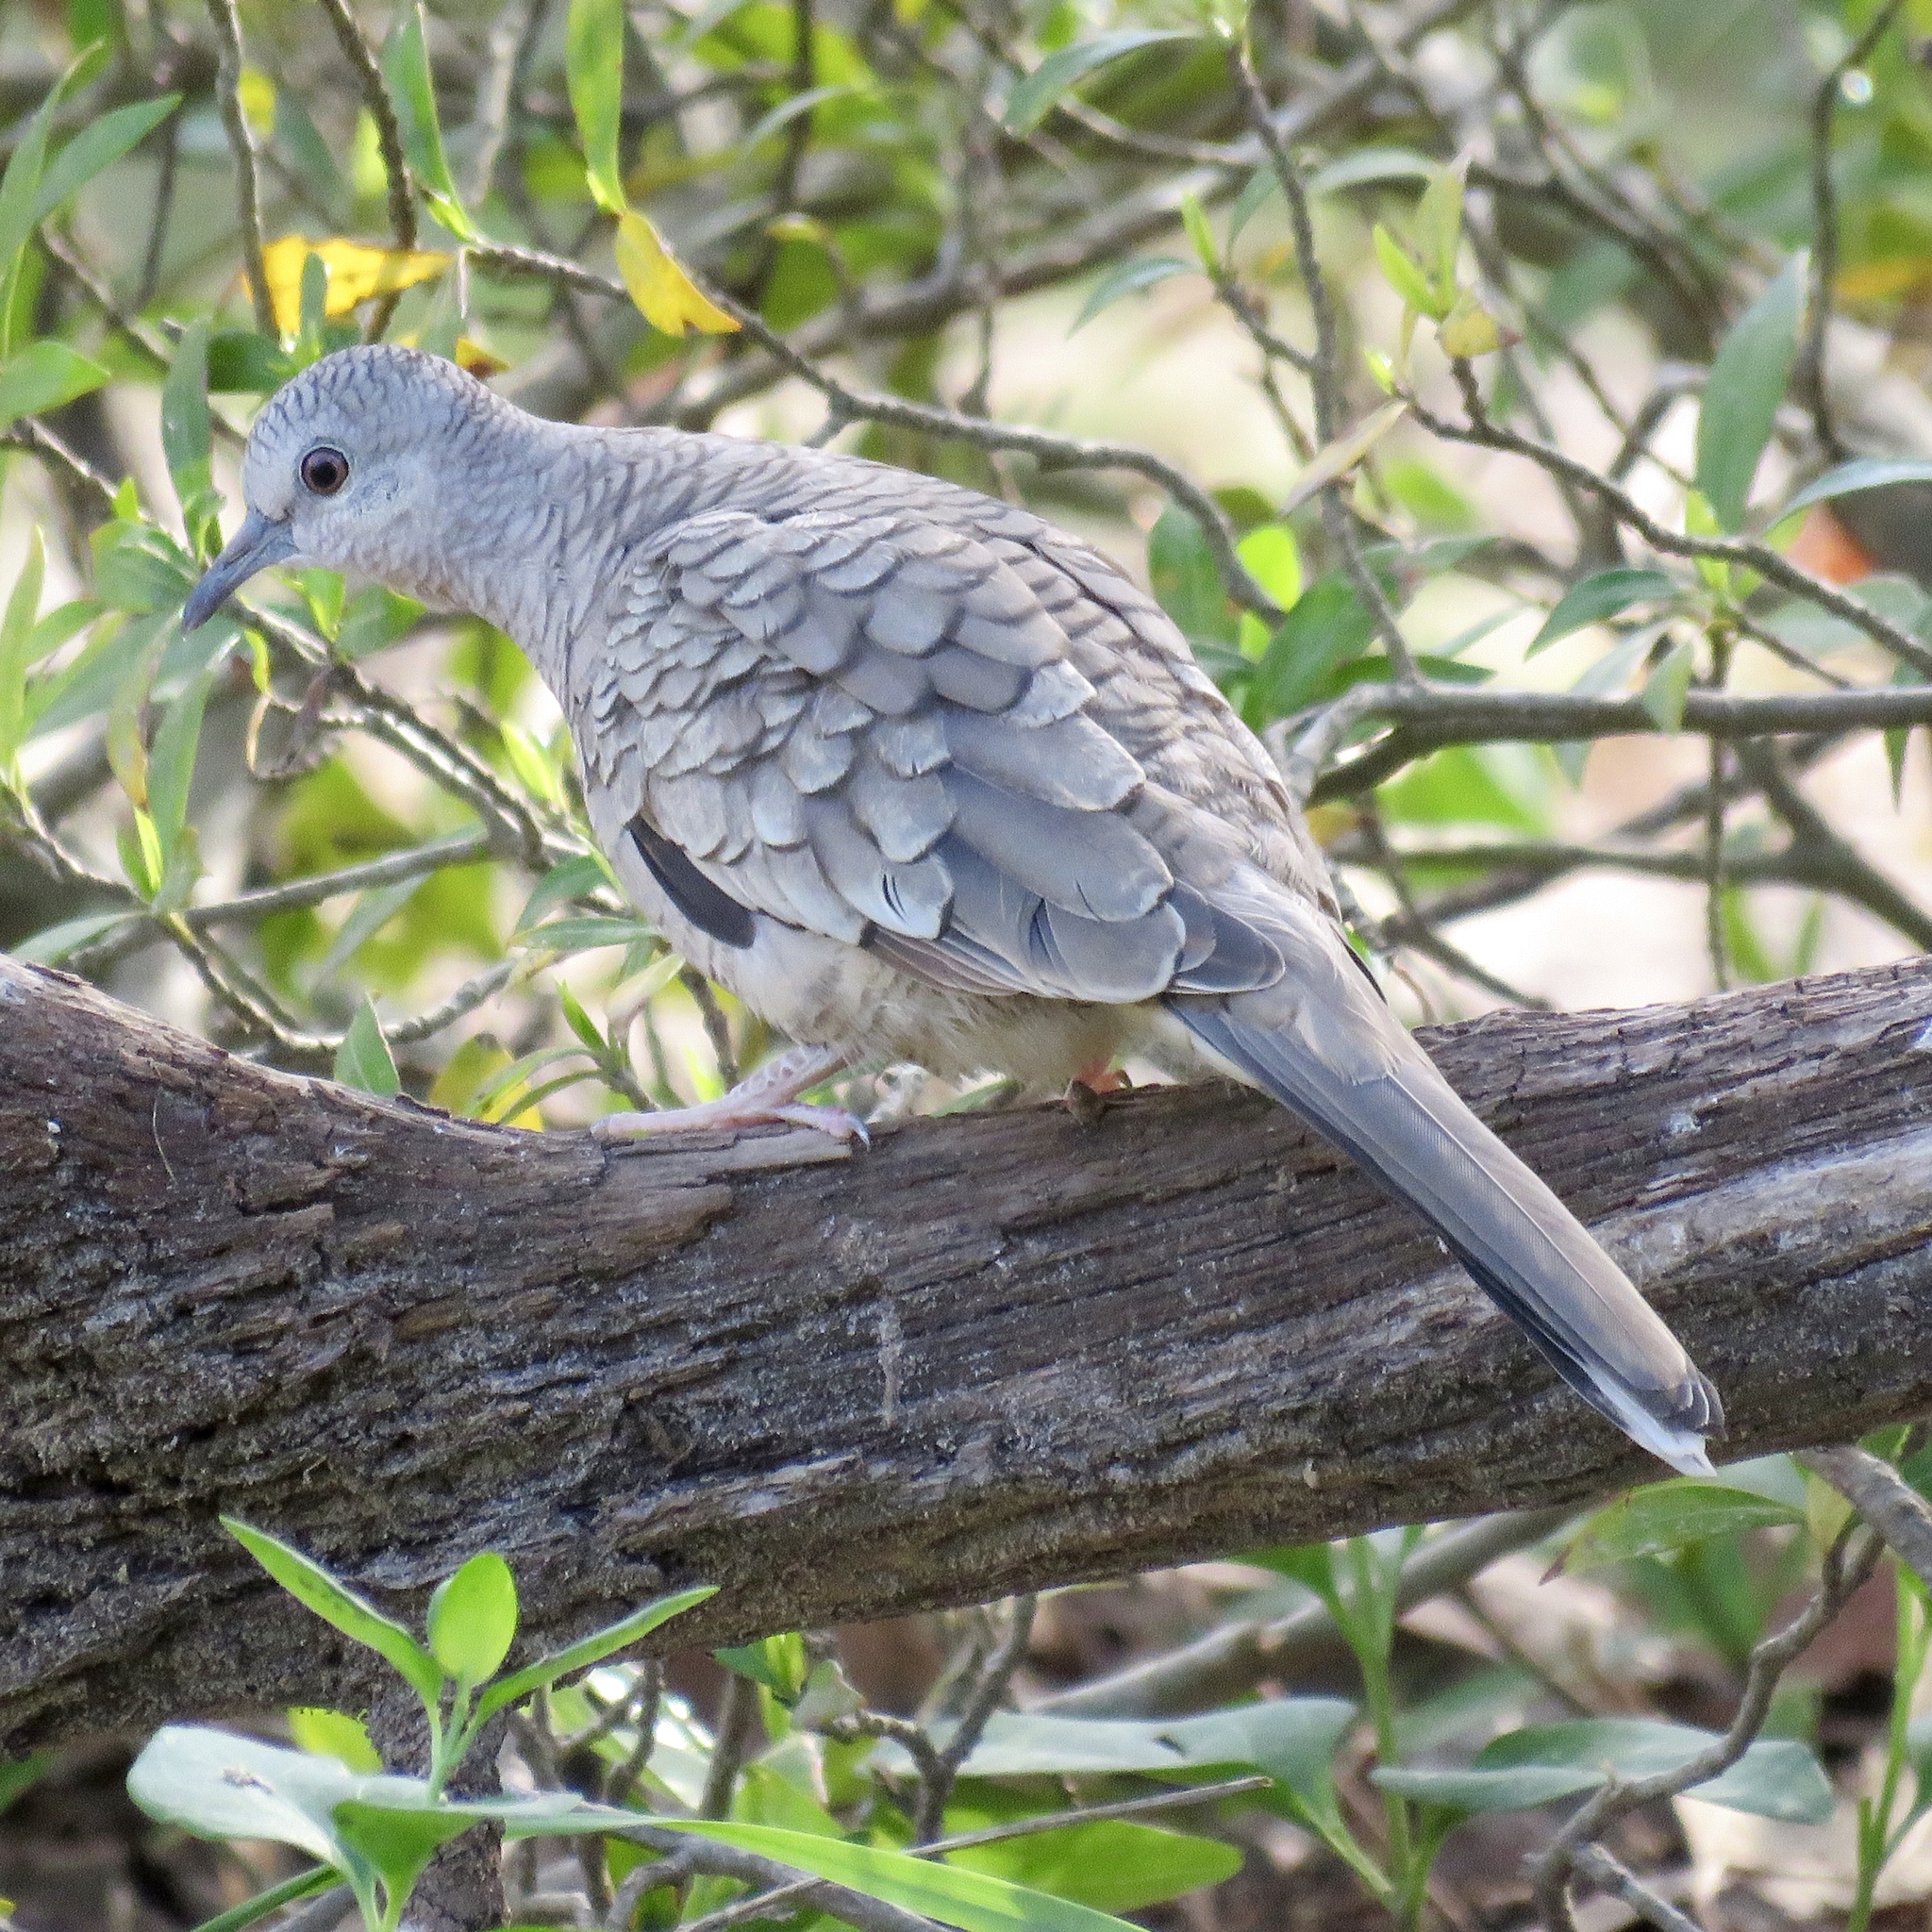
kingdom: Animalia
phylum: Chordata
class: Aves
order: Columbiformes
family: Columbidae
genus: Columbina
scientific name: Columbina inca
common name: Inca dove
